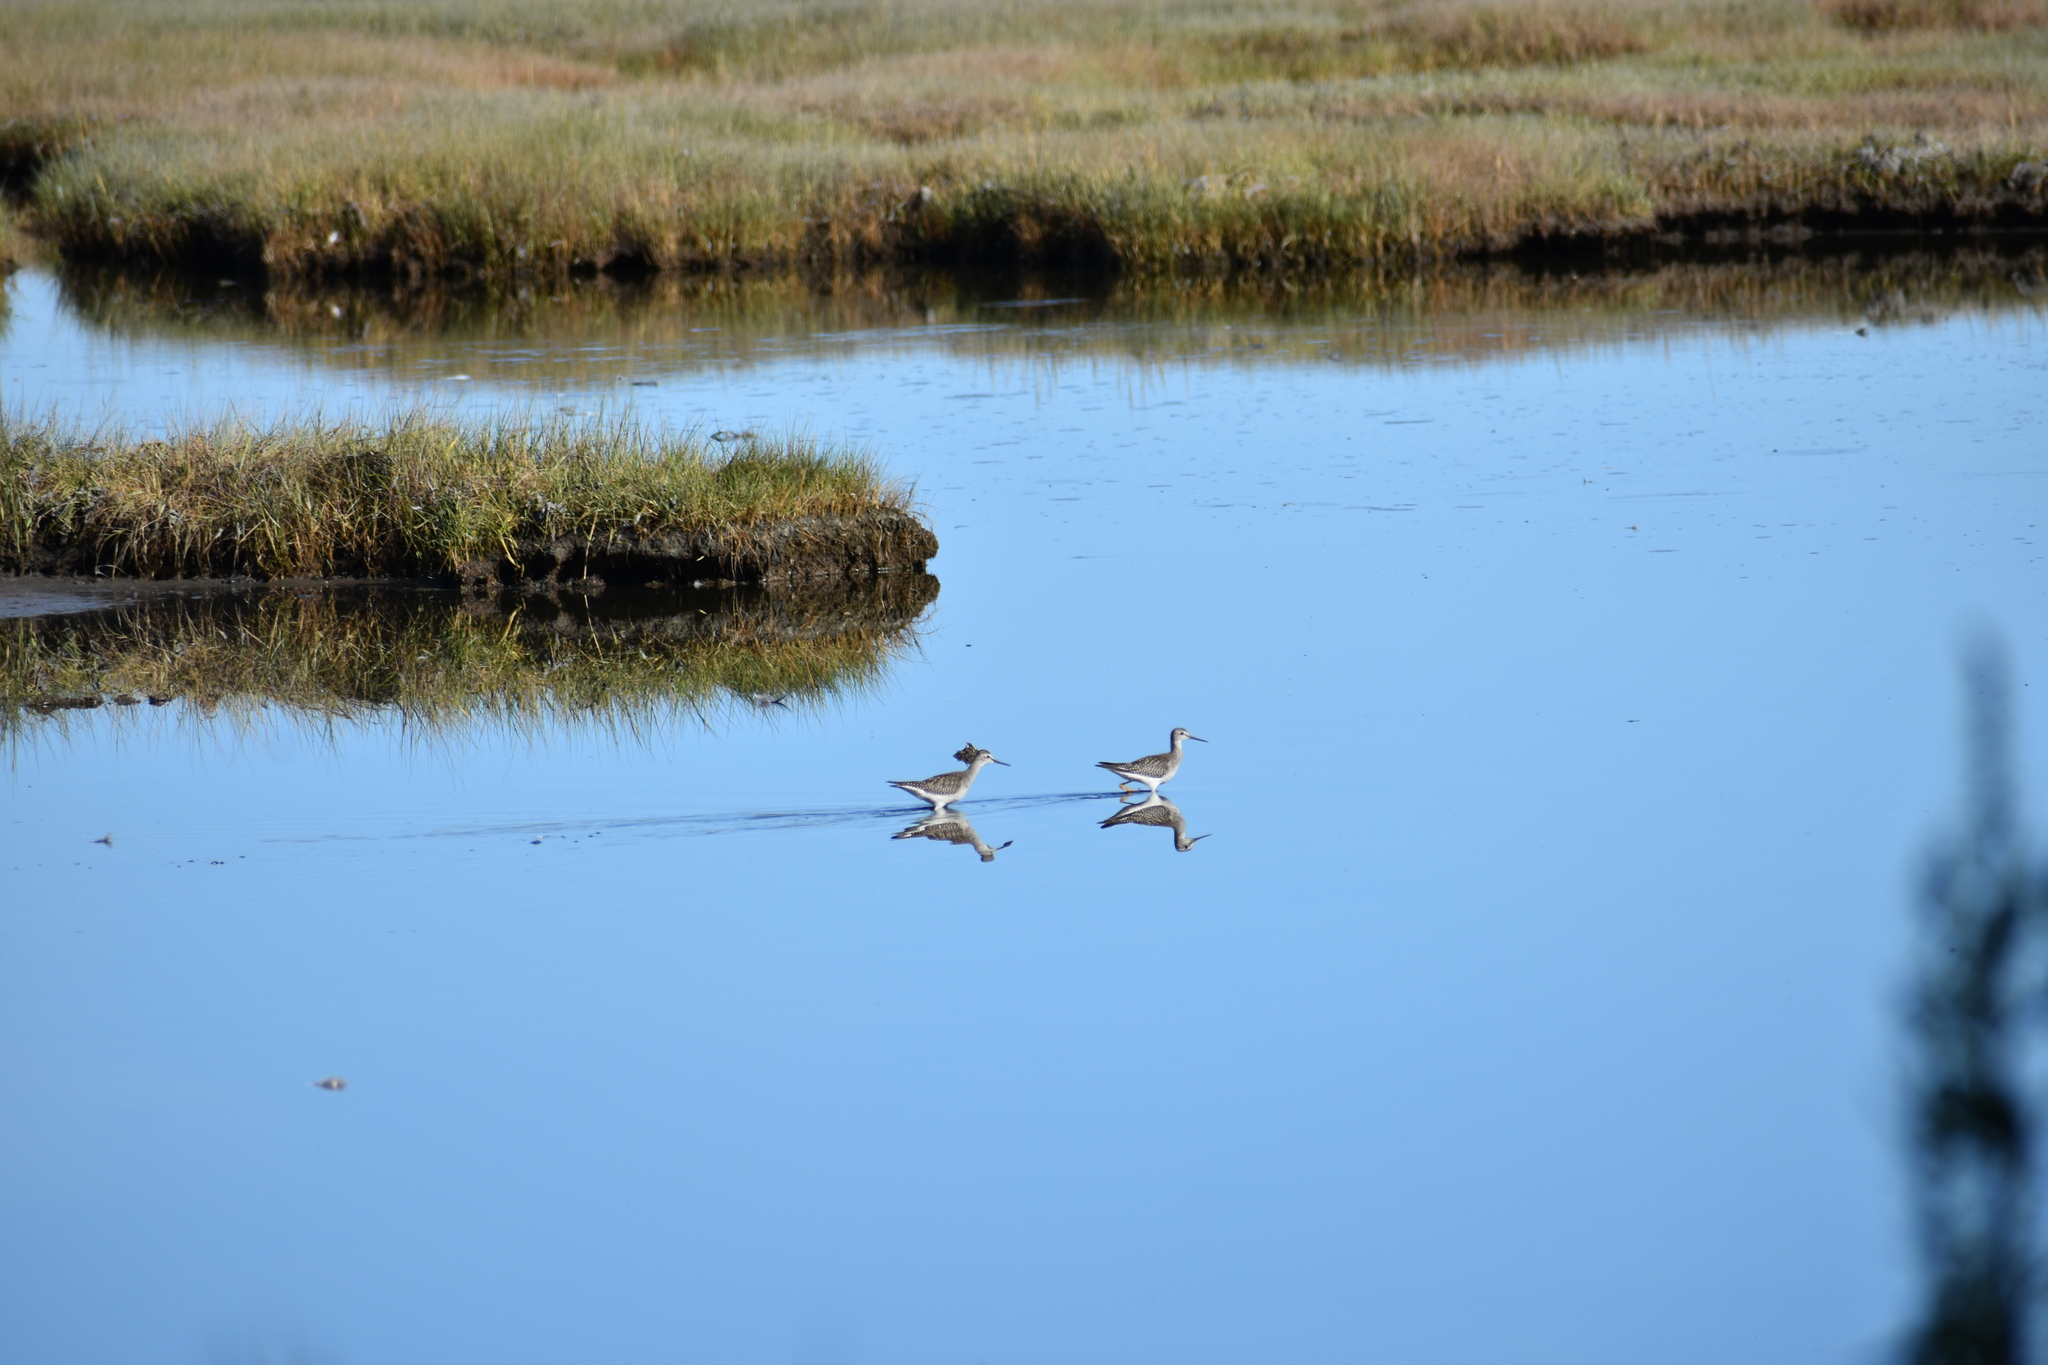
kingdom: Animalia
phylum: Chordata
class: Aves
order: Charadriiformes
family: Scolopacidae
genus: Tringa
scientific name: Tringa melanoleuca
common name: Greater yellowlegs
